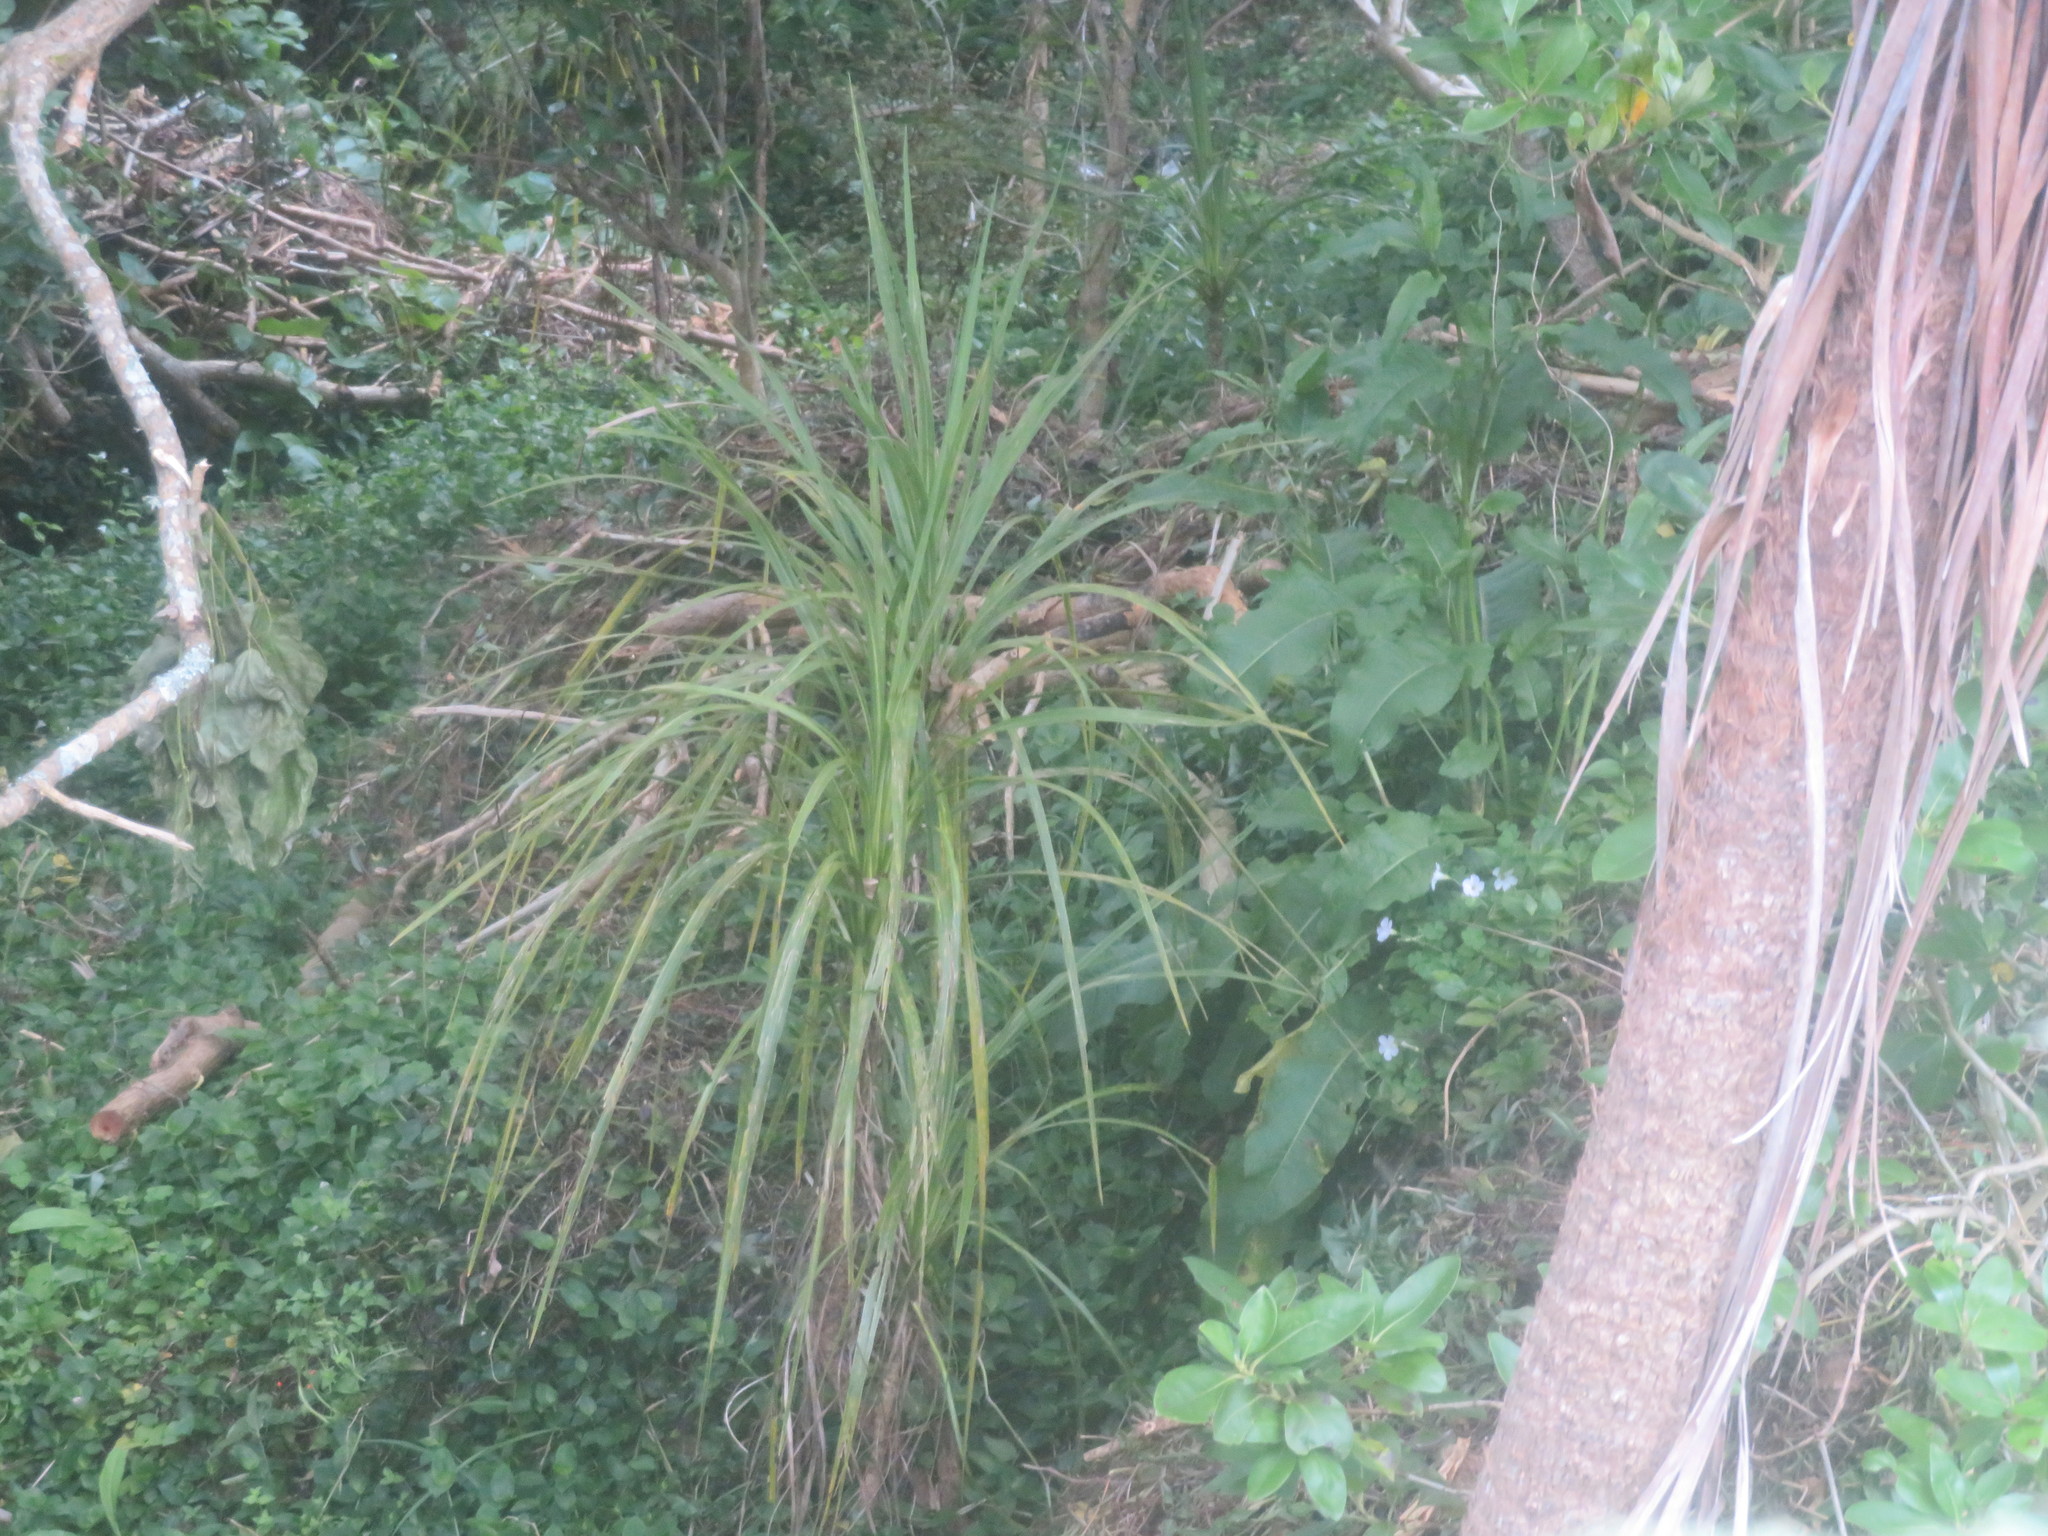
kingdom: Plantae
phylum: Tracheophyta
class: Liliopsida
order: Asparagales
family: Asparagaceae
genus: Cordyline
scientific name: Cordyline australis
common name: Cabbage-palm
